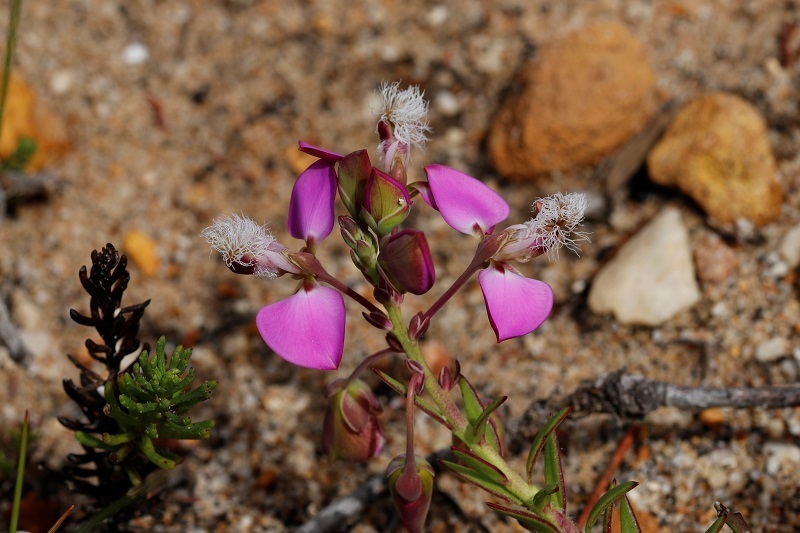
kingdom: Plantae
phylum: Tracheophyta
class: Magnoliopsida
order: Fabales
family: Polygalaceae
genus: Polygala
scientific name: Polygala bracteolata
